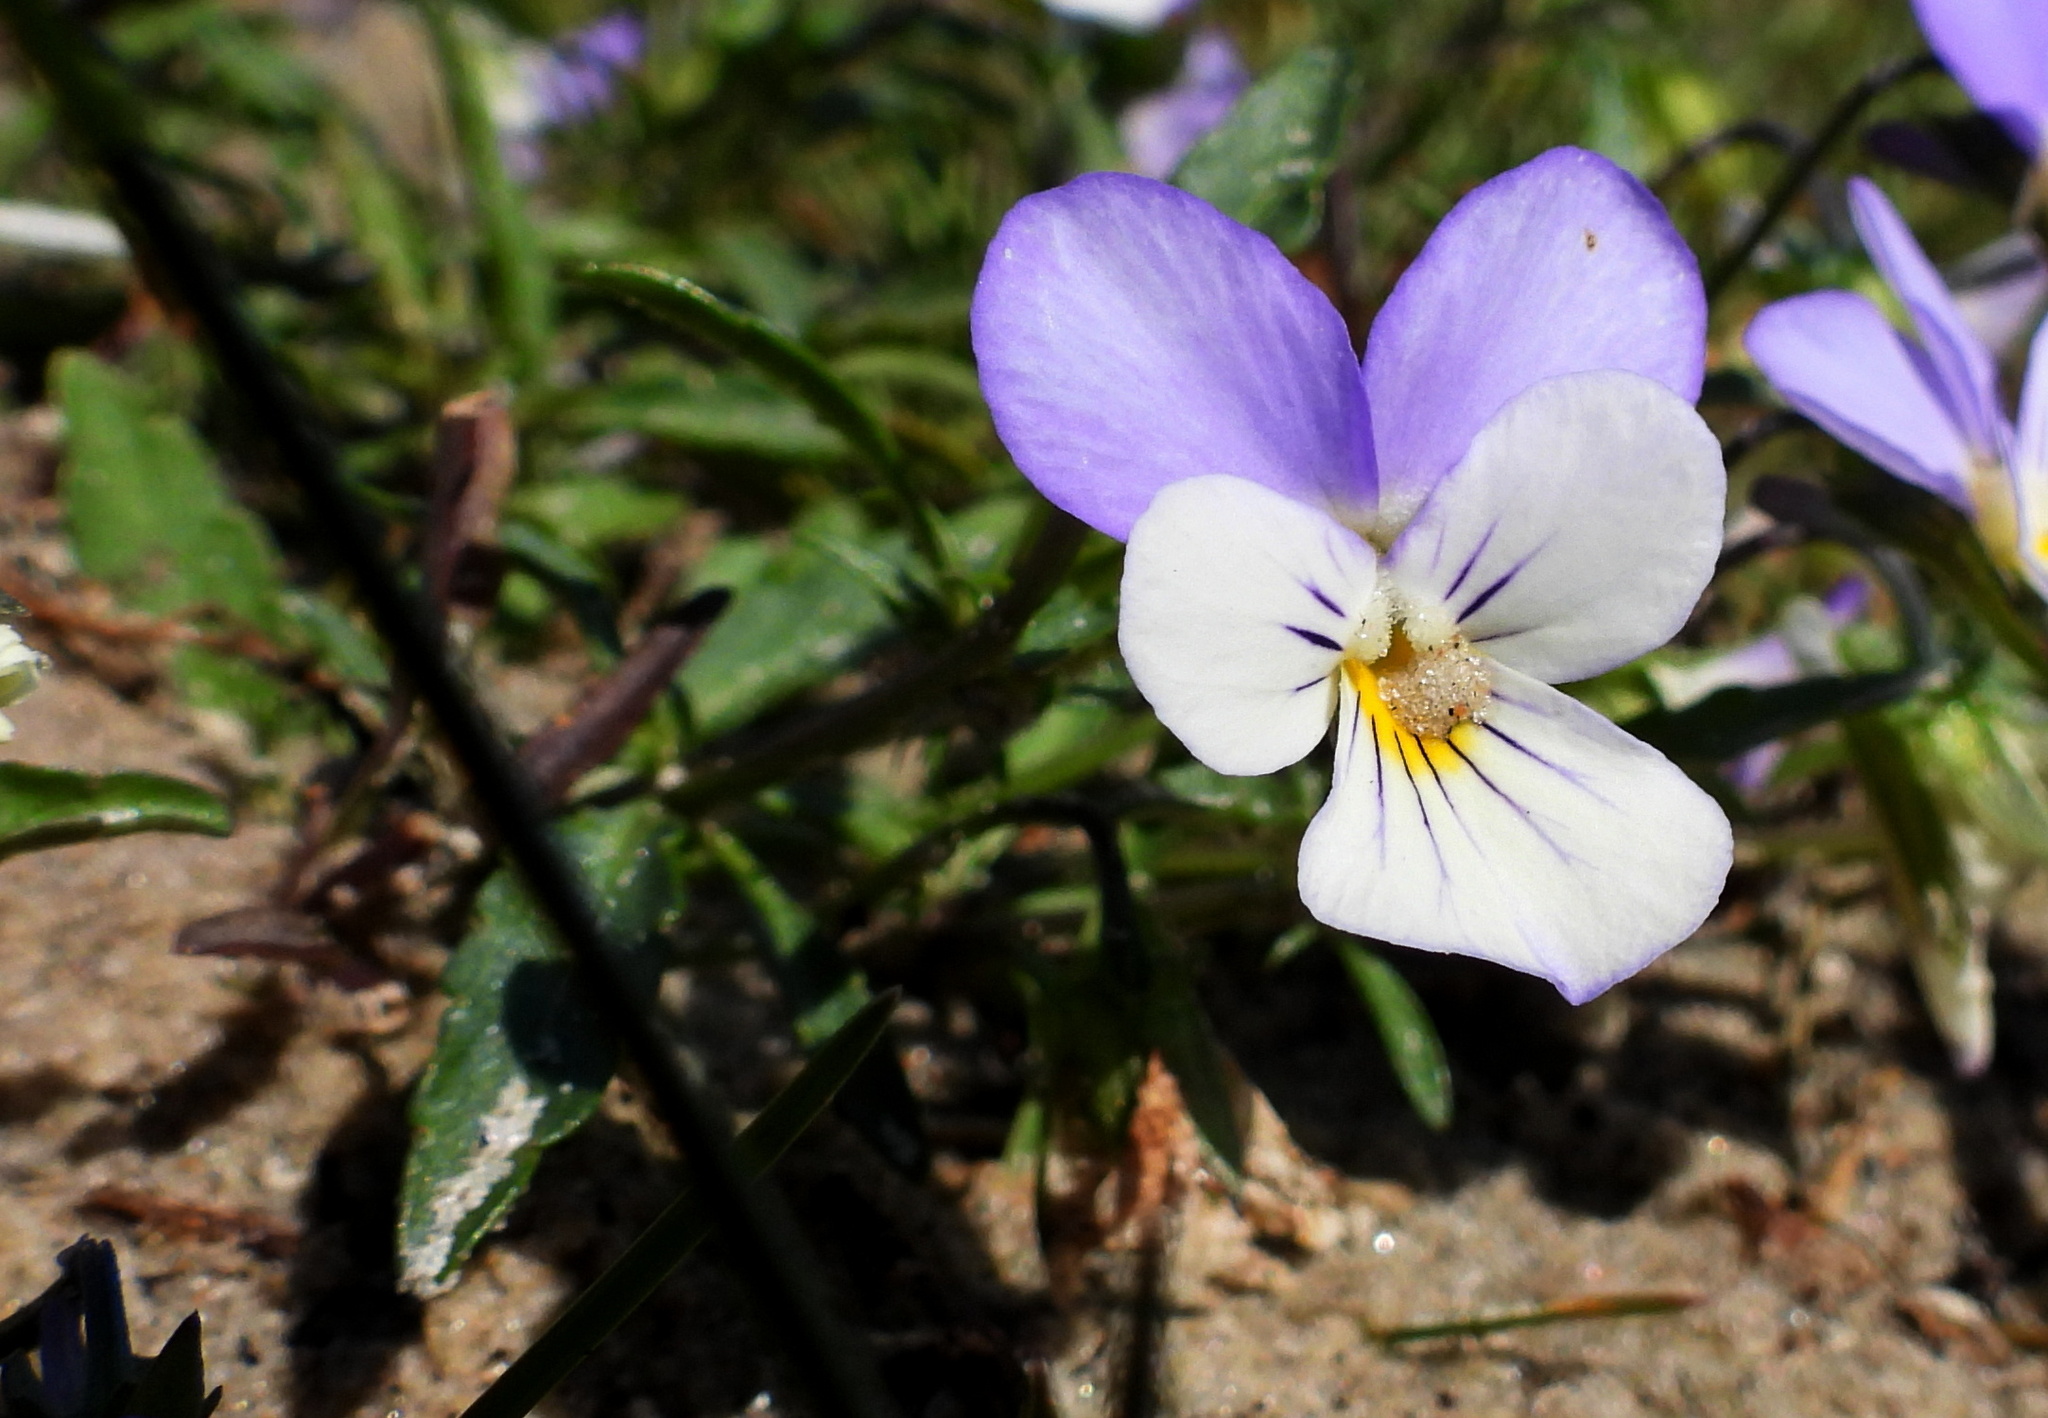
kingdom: Plantae
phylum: Tracheophyta
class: Magnoliopsida
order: Malpighiales
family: Violaceae
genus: Viola
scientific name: Viola tricolor
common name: Pansy
